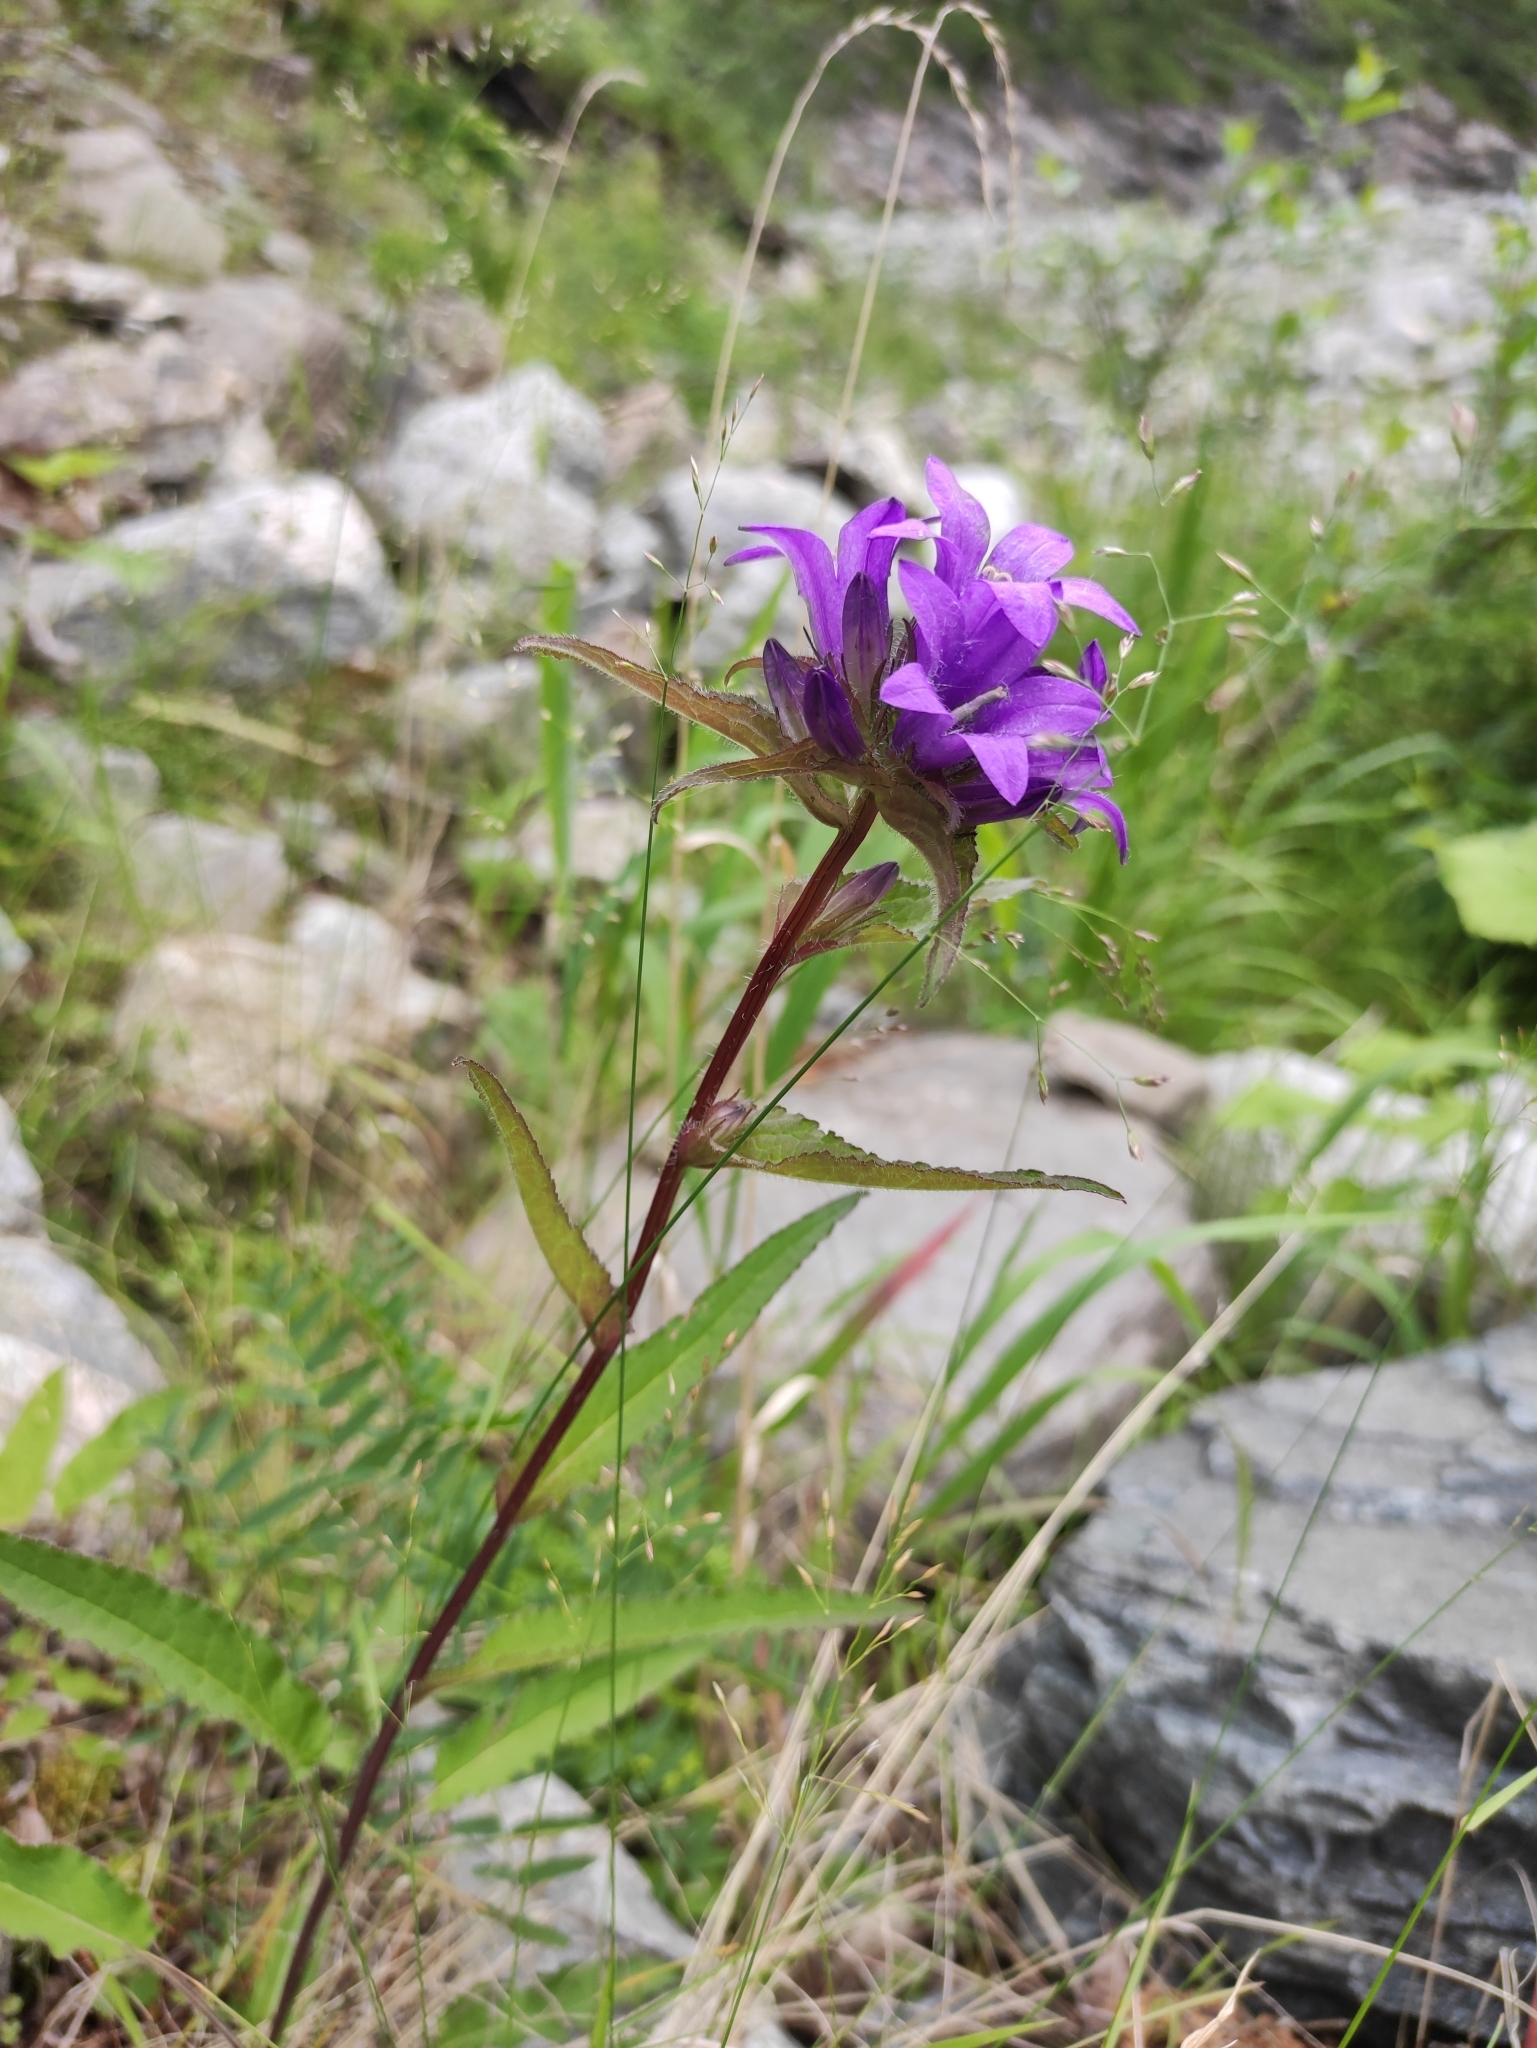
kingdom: Plantae
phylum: Tracheophyta
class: Magnoliopsida
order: Asterales
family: Campanulaceae
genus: Campanula
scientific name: Campanula glomerata
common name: Clustered bellflower
